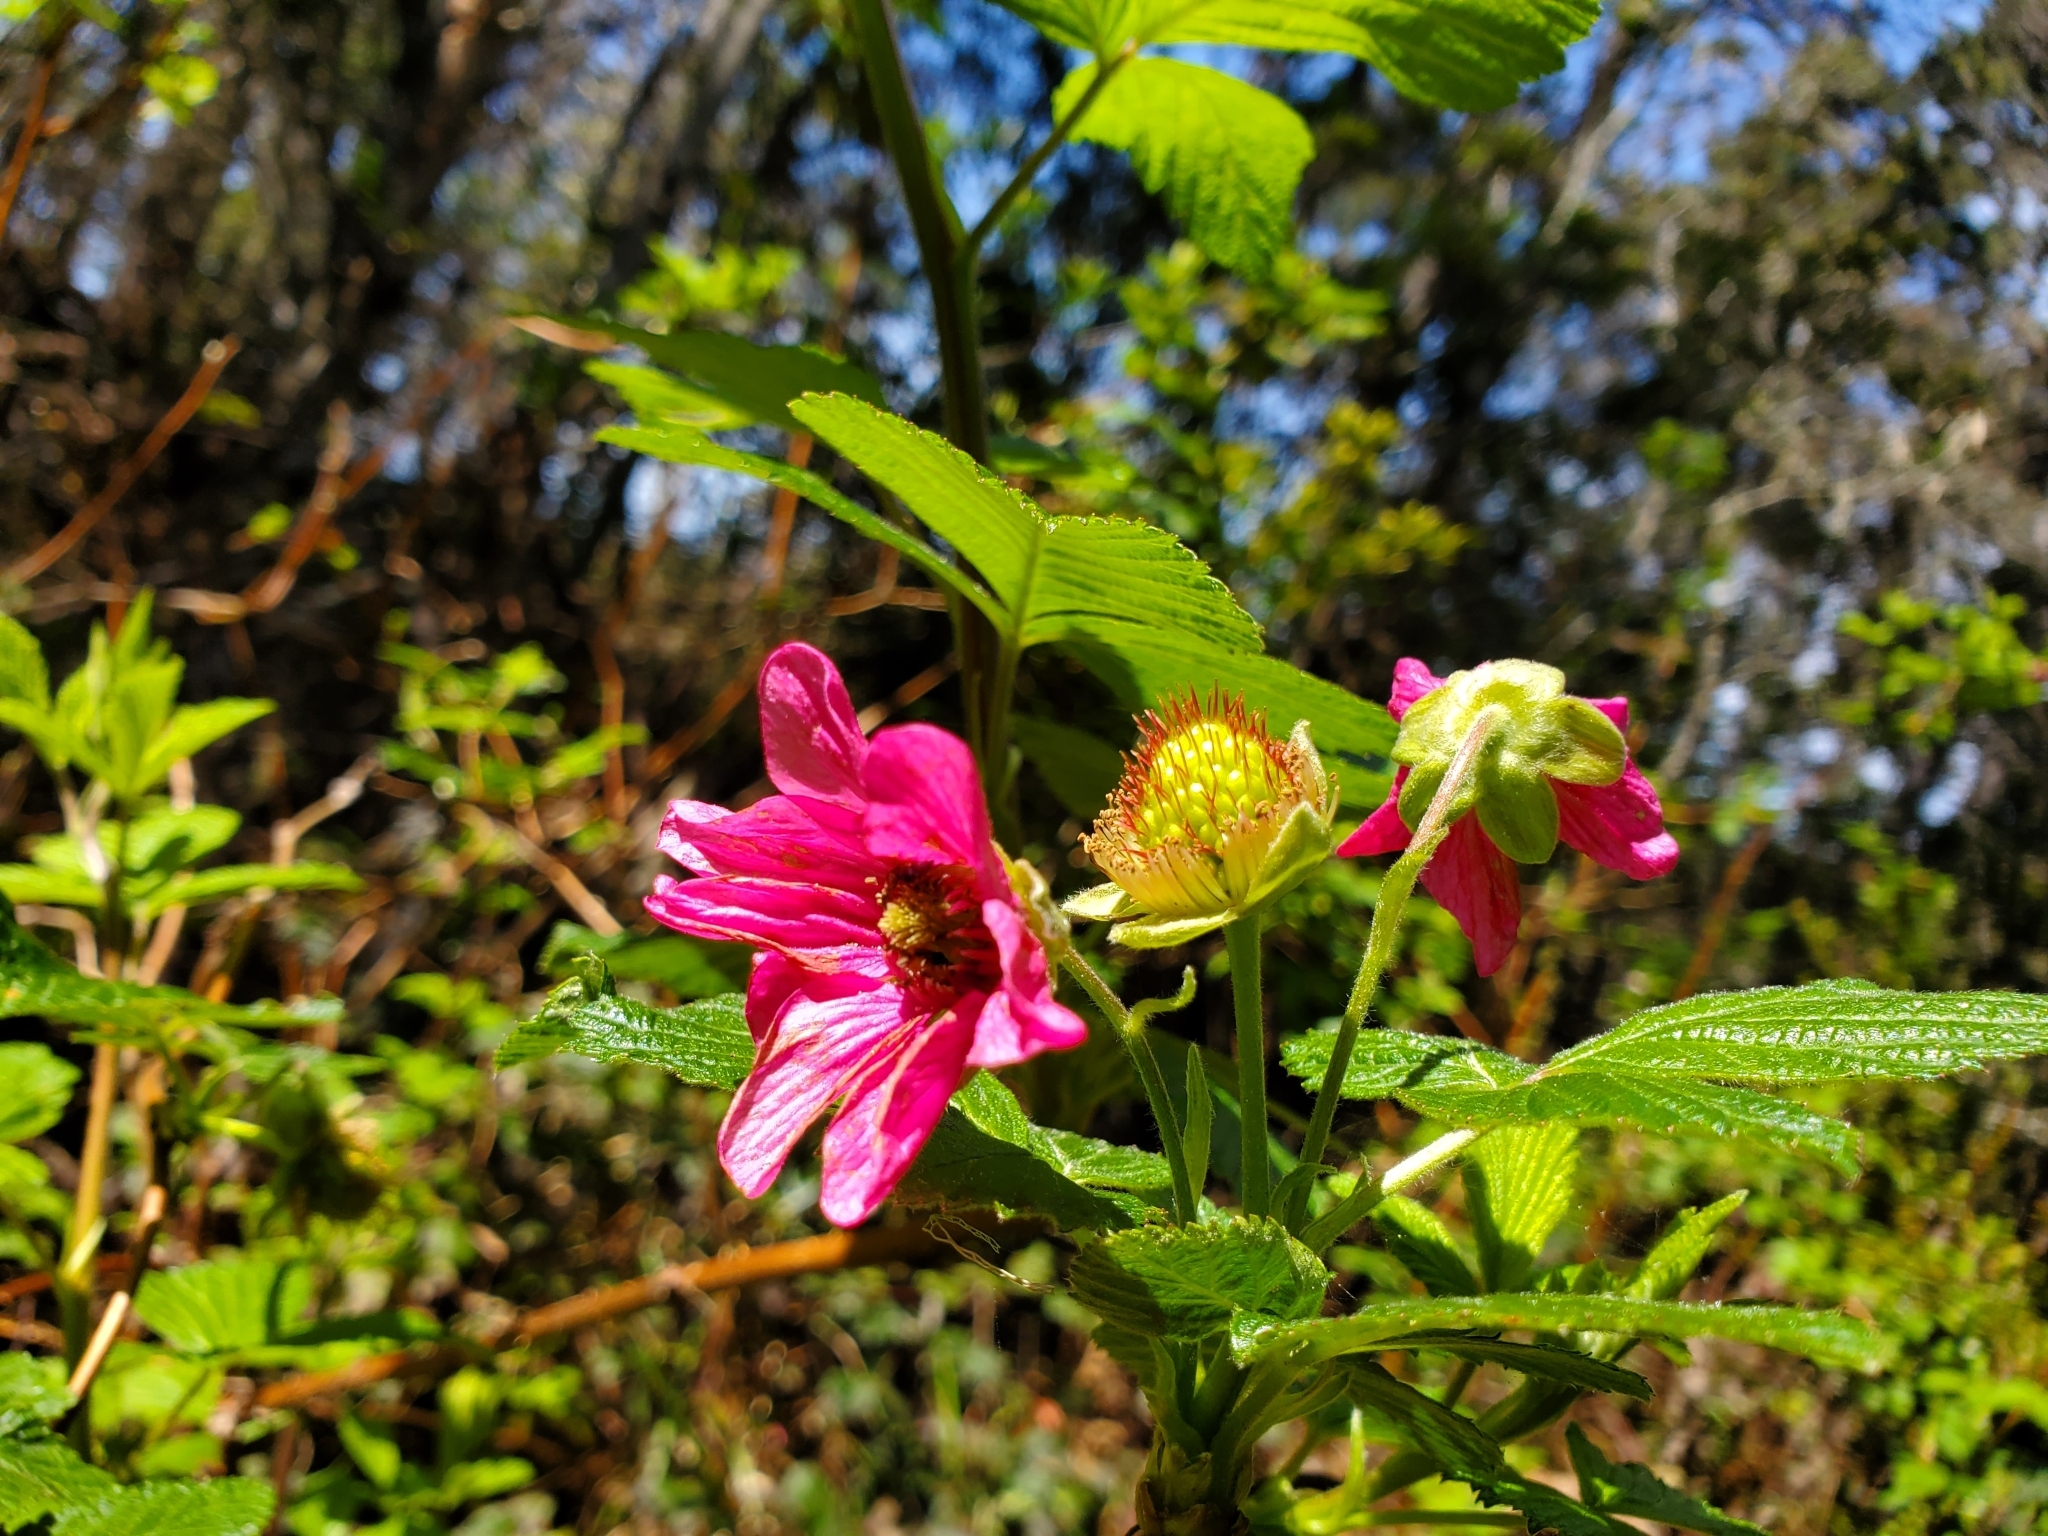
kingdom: Plantae
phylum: Tracheophyta
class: Magnoliopsida
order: Rosales
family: Rosaceae
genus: Rubus
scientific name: Rubus spectabilis
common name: Salmonberry
